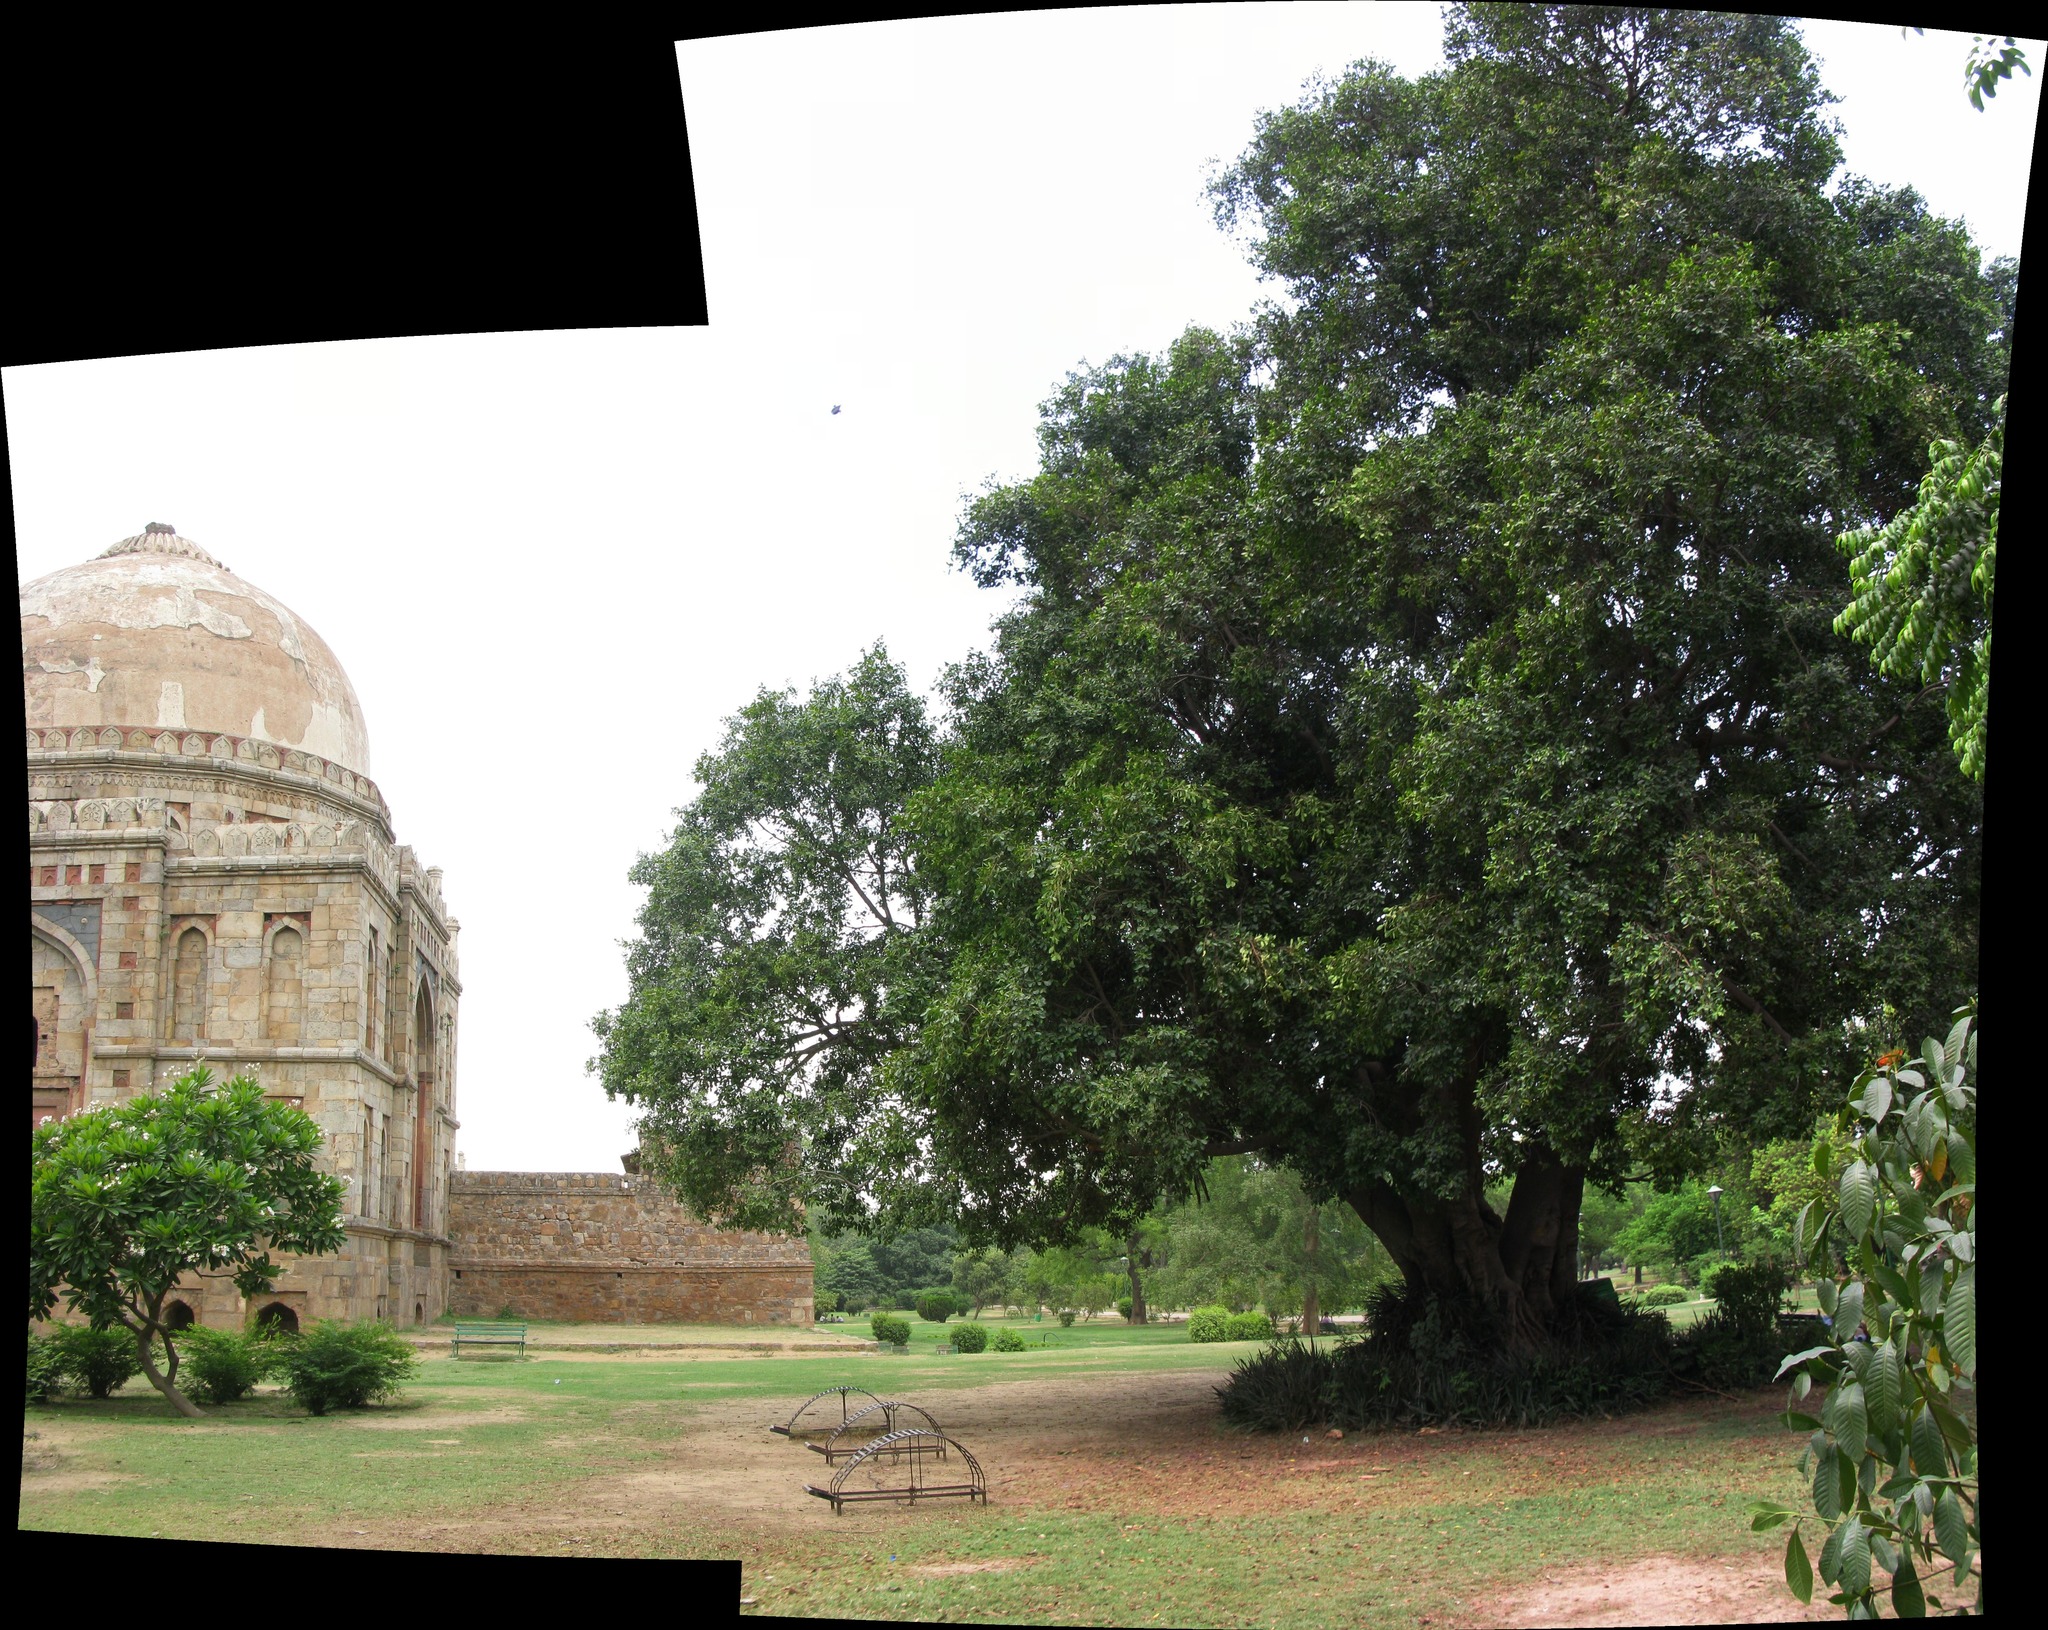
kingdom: Plantae
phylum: Tracheophyta
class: Magnoliopsida
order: Rosales
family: Moraceae
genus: Ficus
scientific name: Ficus benjamina
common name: Weeping fig
